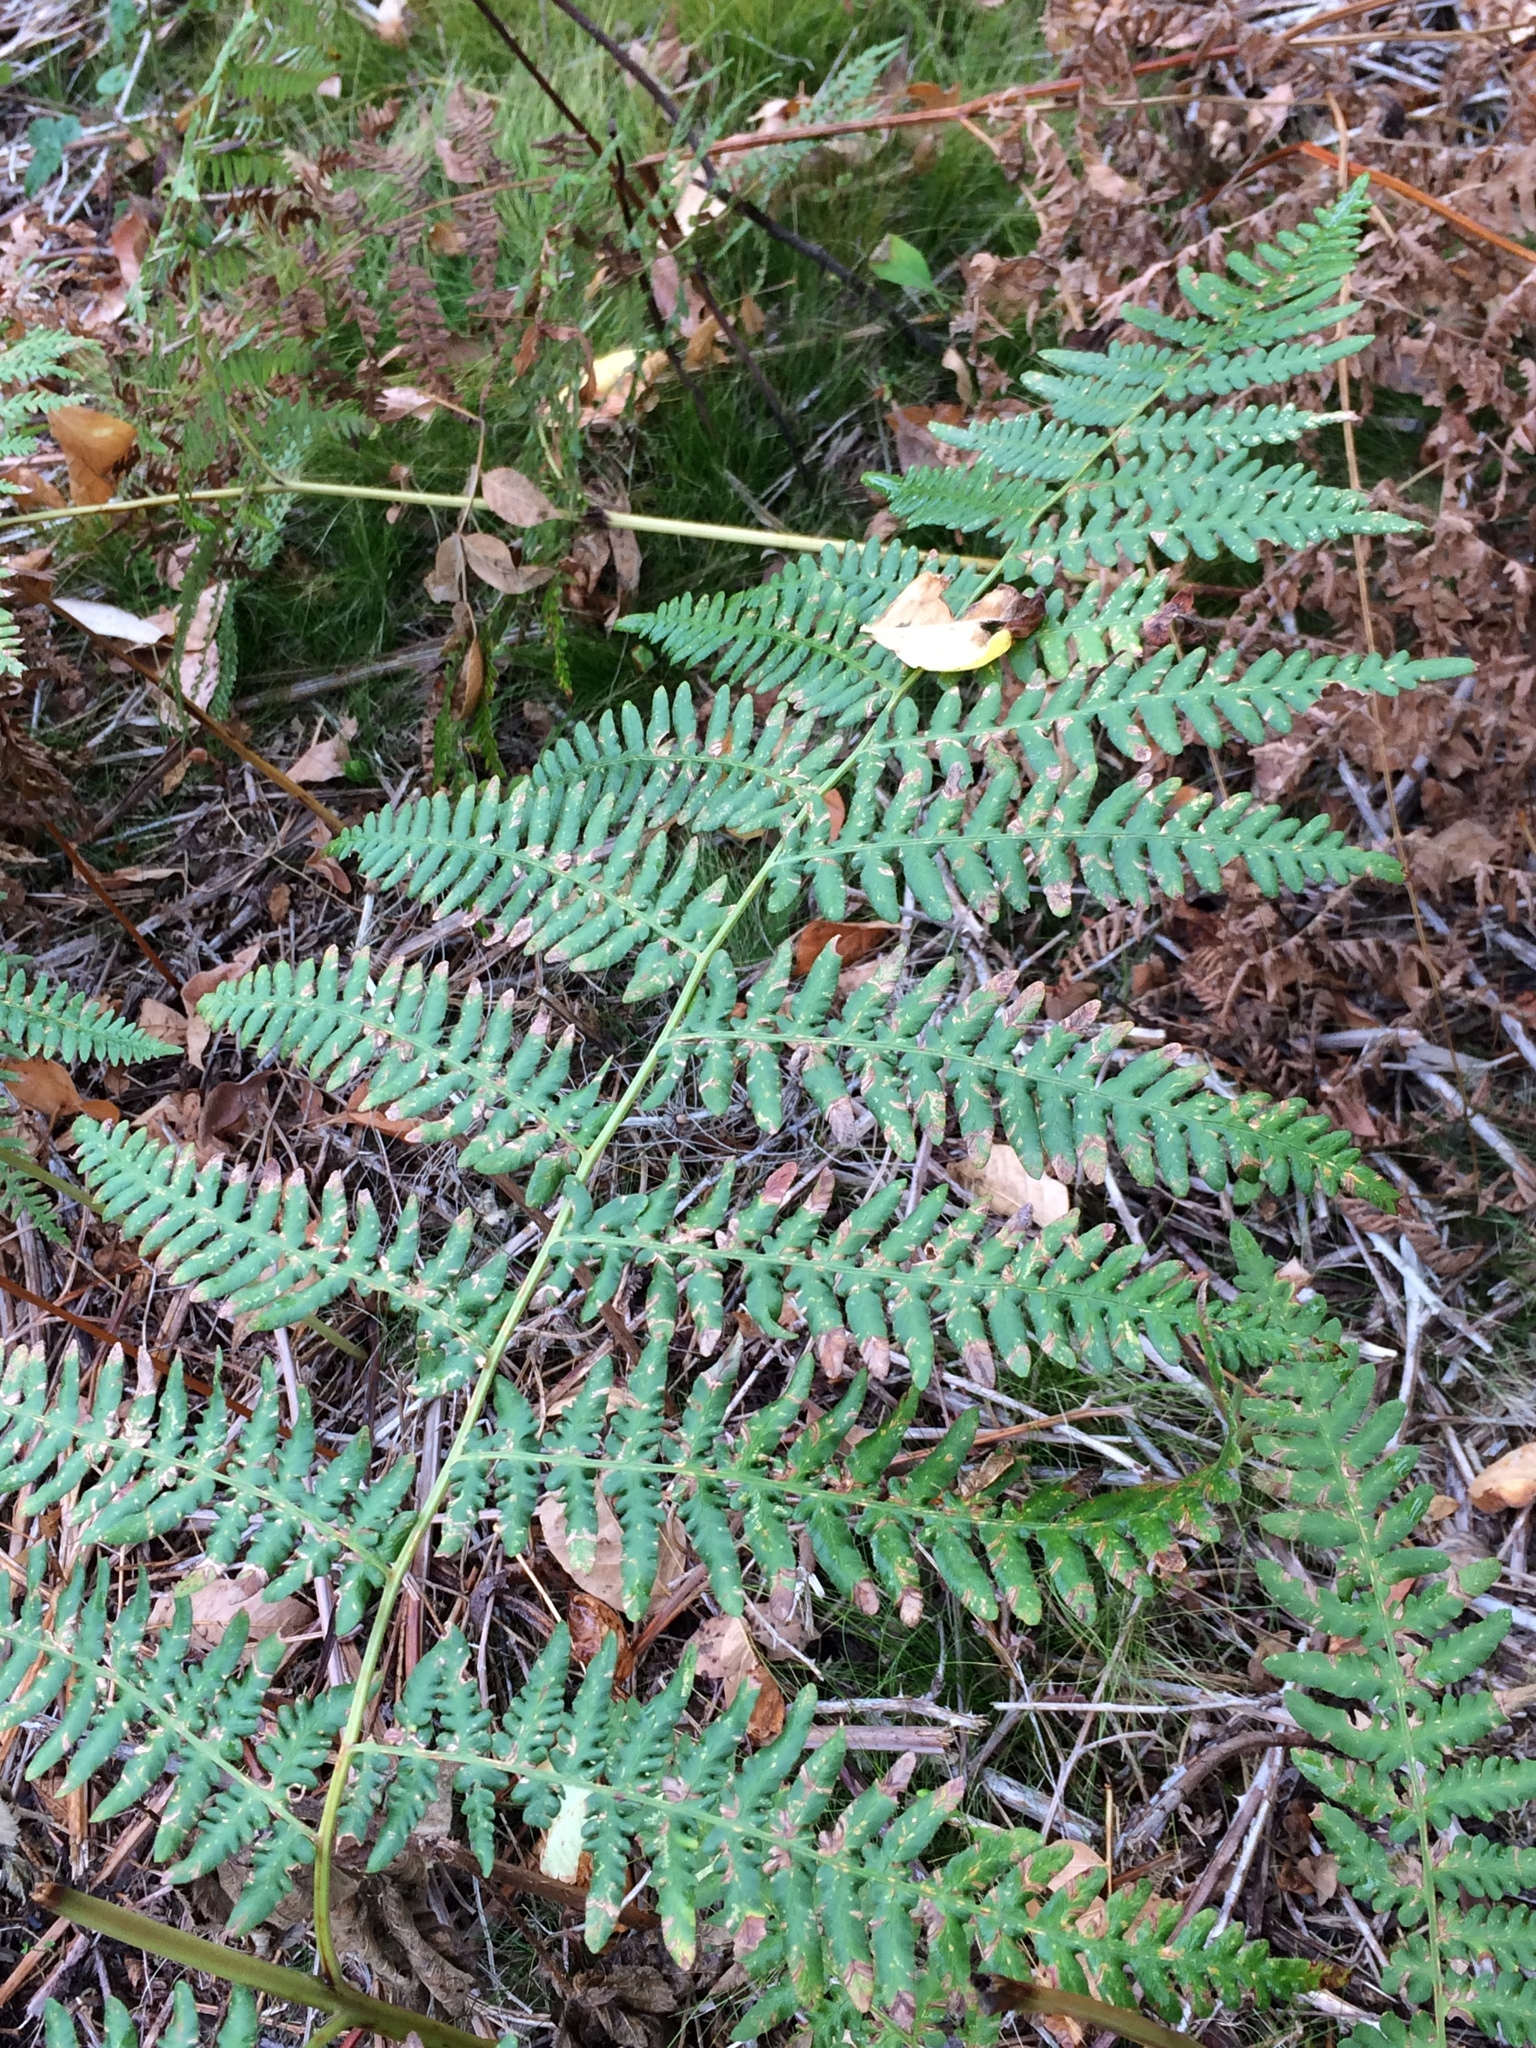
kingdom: Plantae
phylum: Tracheophyta
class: Polypodiopsida
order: Polypodiales
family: Dennstaedtiaceae
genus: Pteridium
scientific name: Pteridium aquilinum
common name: Bracken
